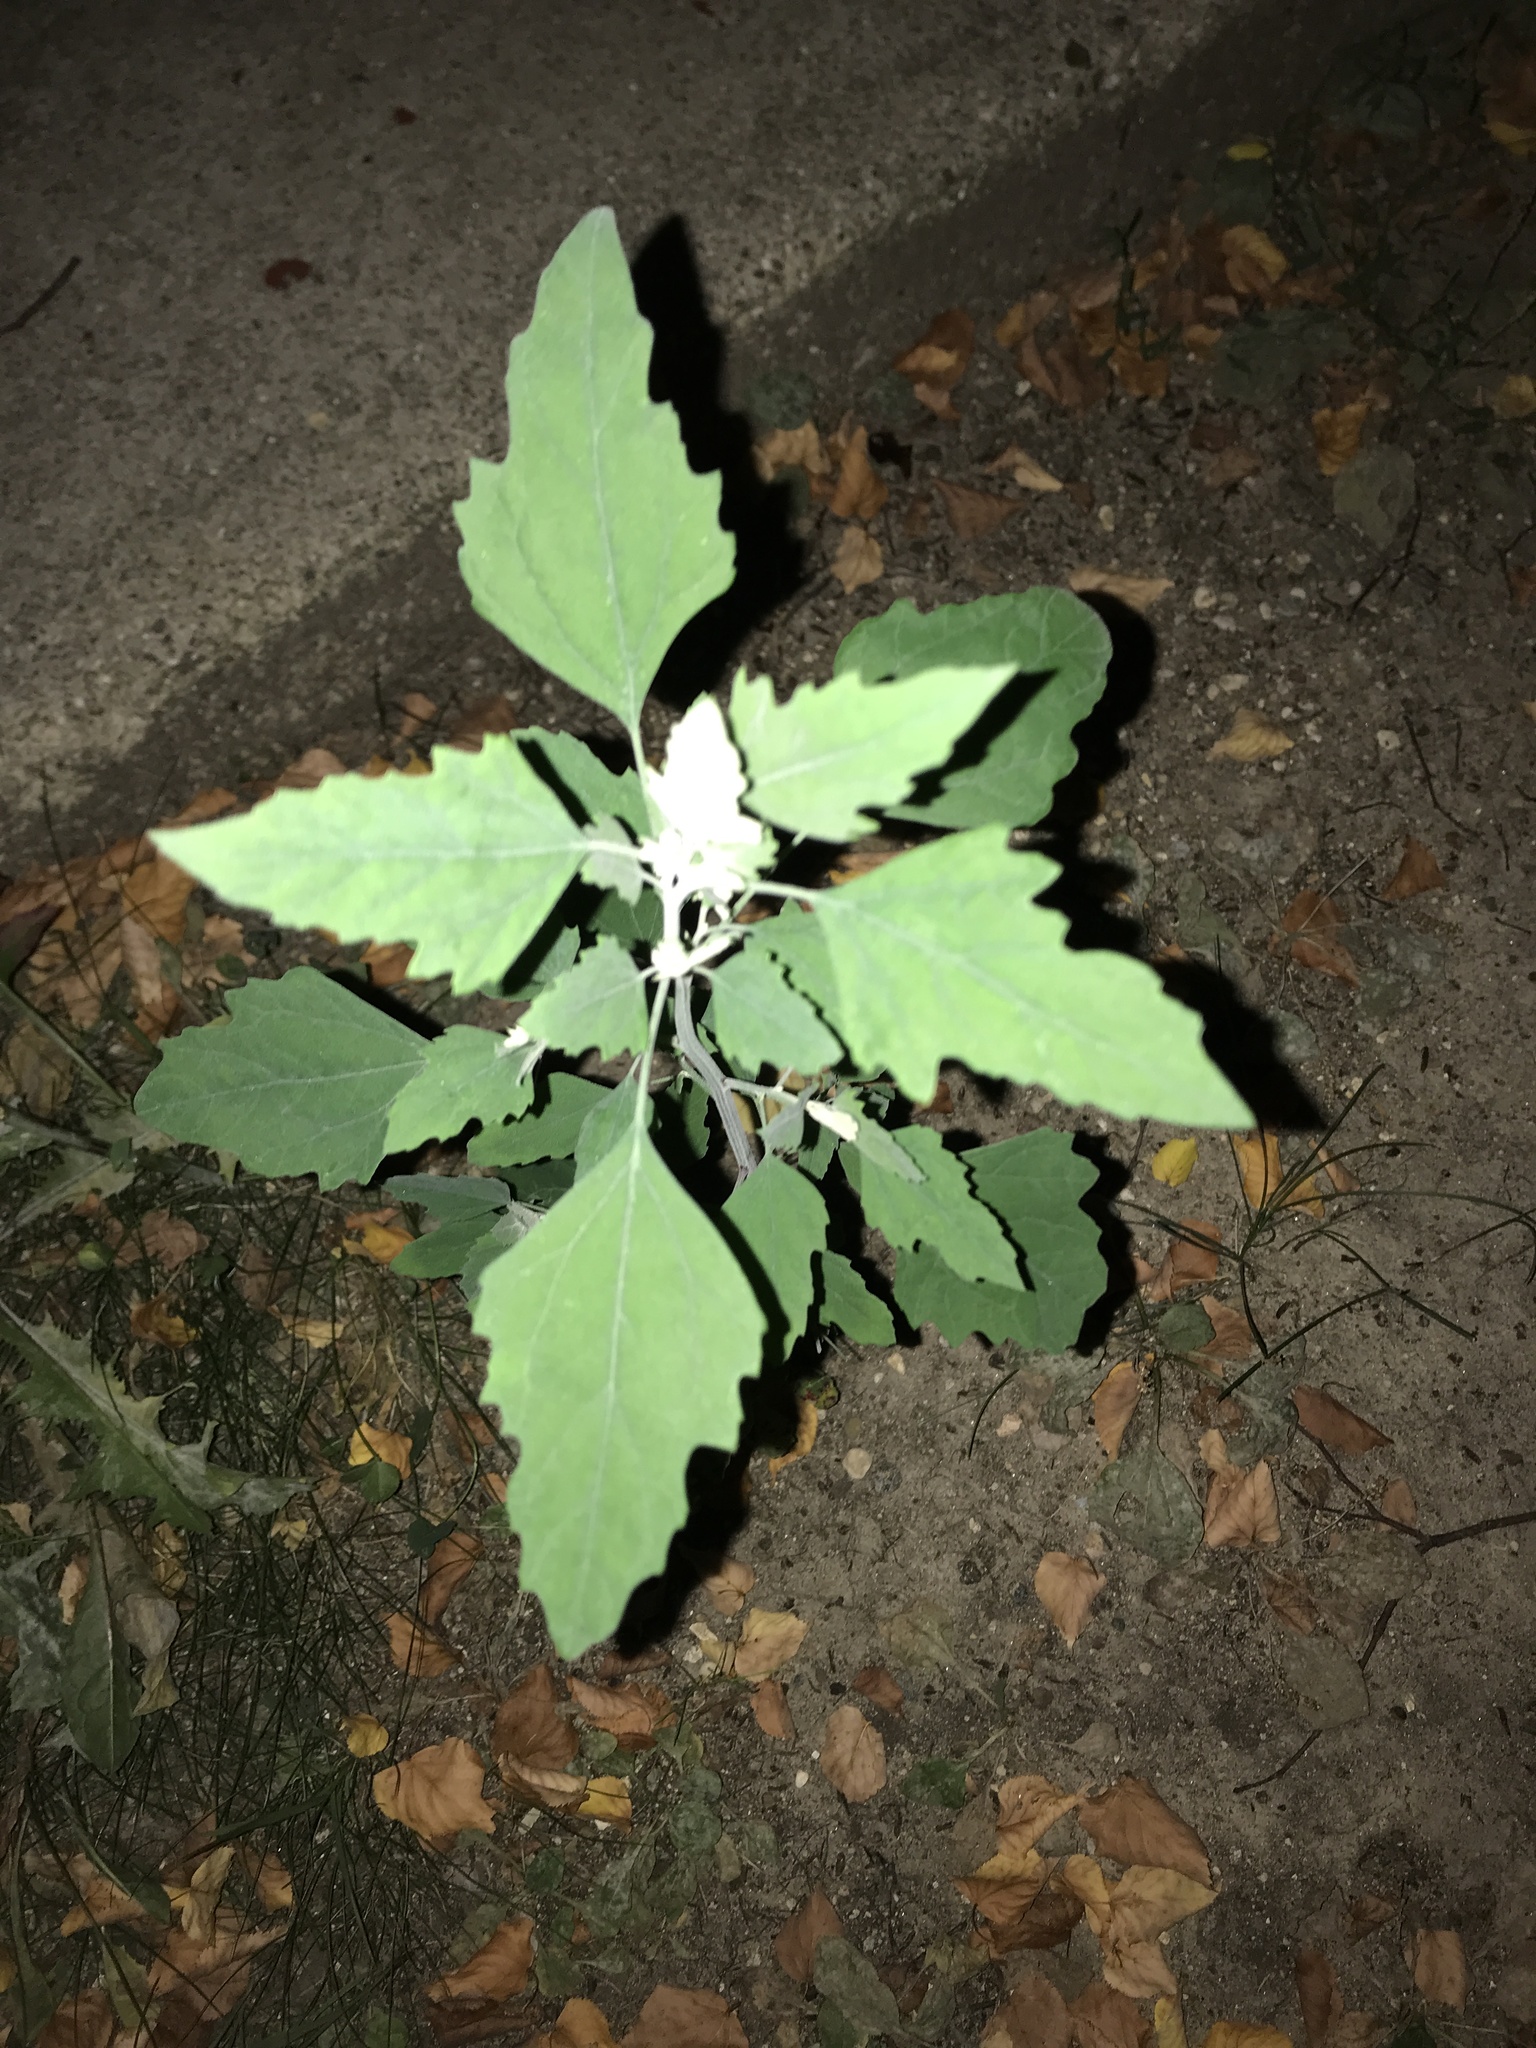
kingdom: Plantae
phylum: Tracheophyta
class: Magnoliopsida
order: Caryophyllales
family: Amaranthaceae
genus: Chenopodium
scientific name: Chenopodium album
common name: Fat-hen
